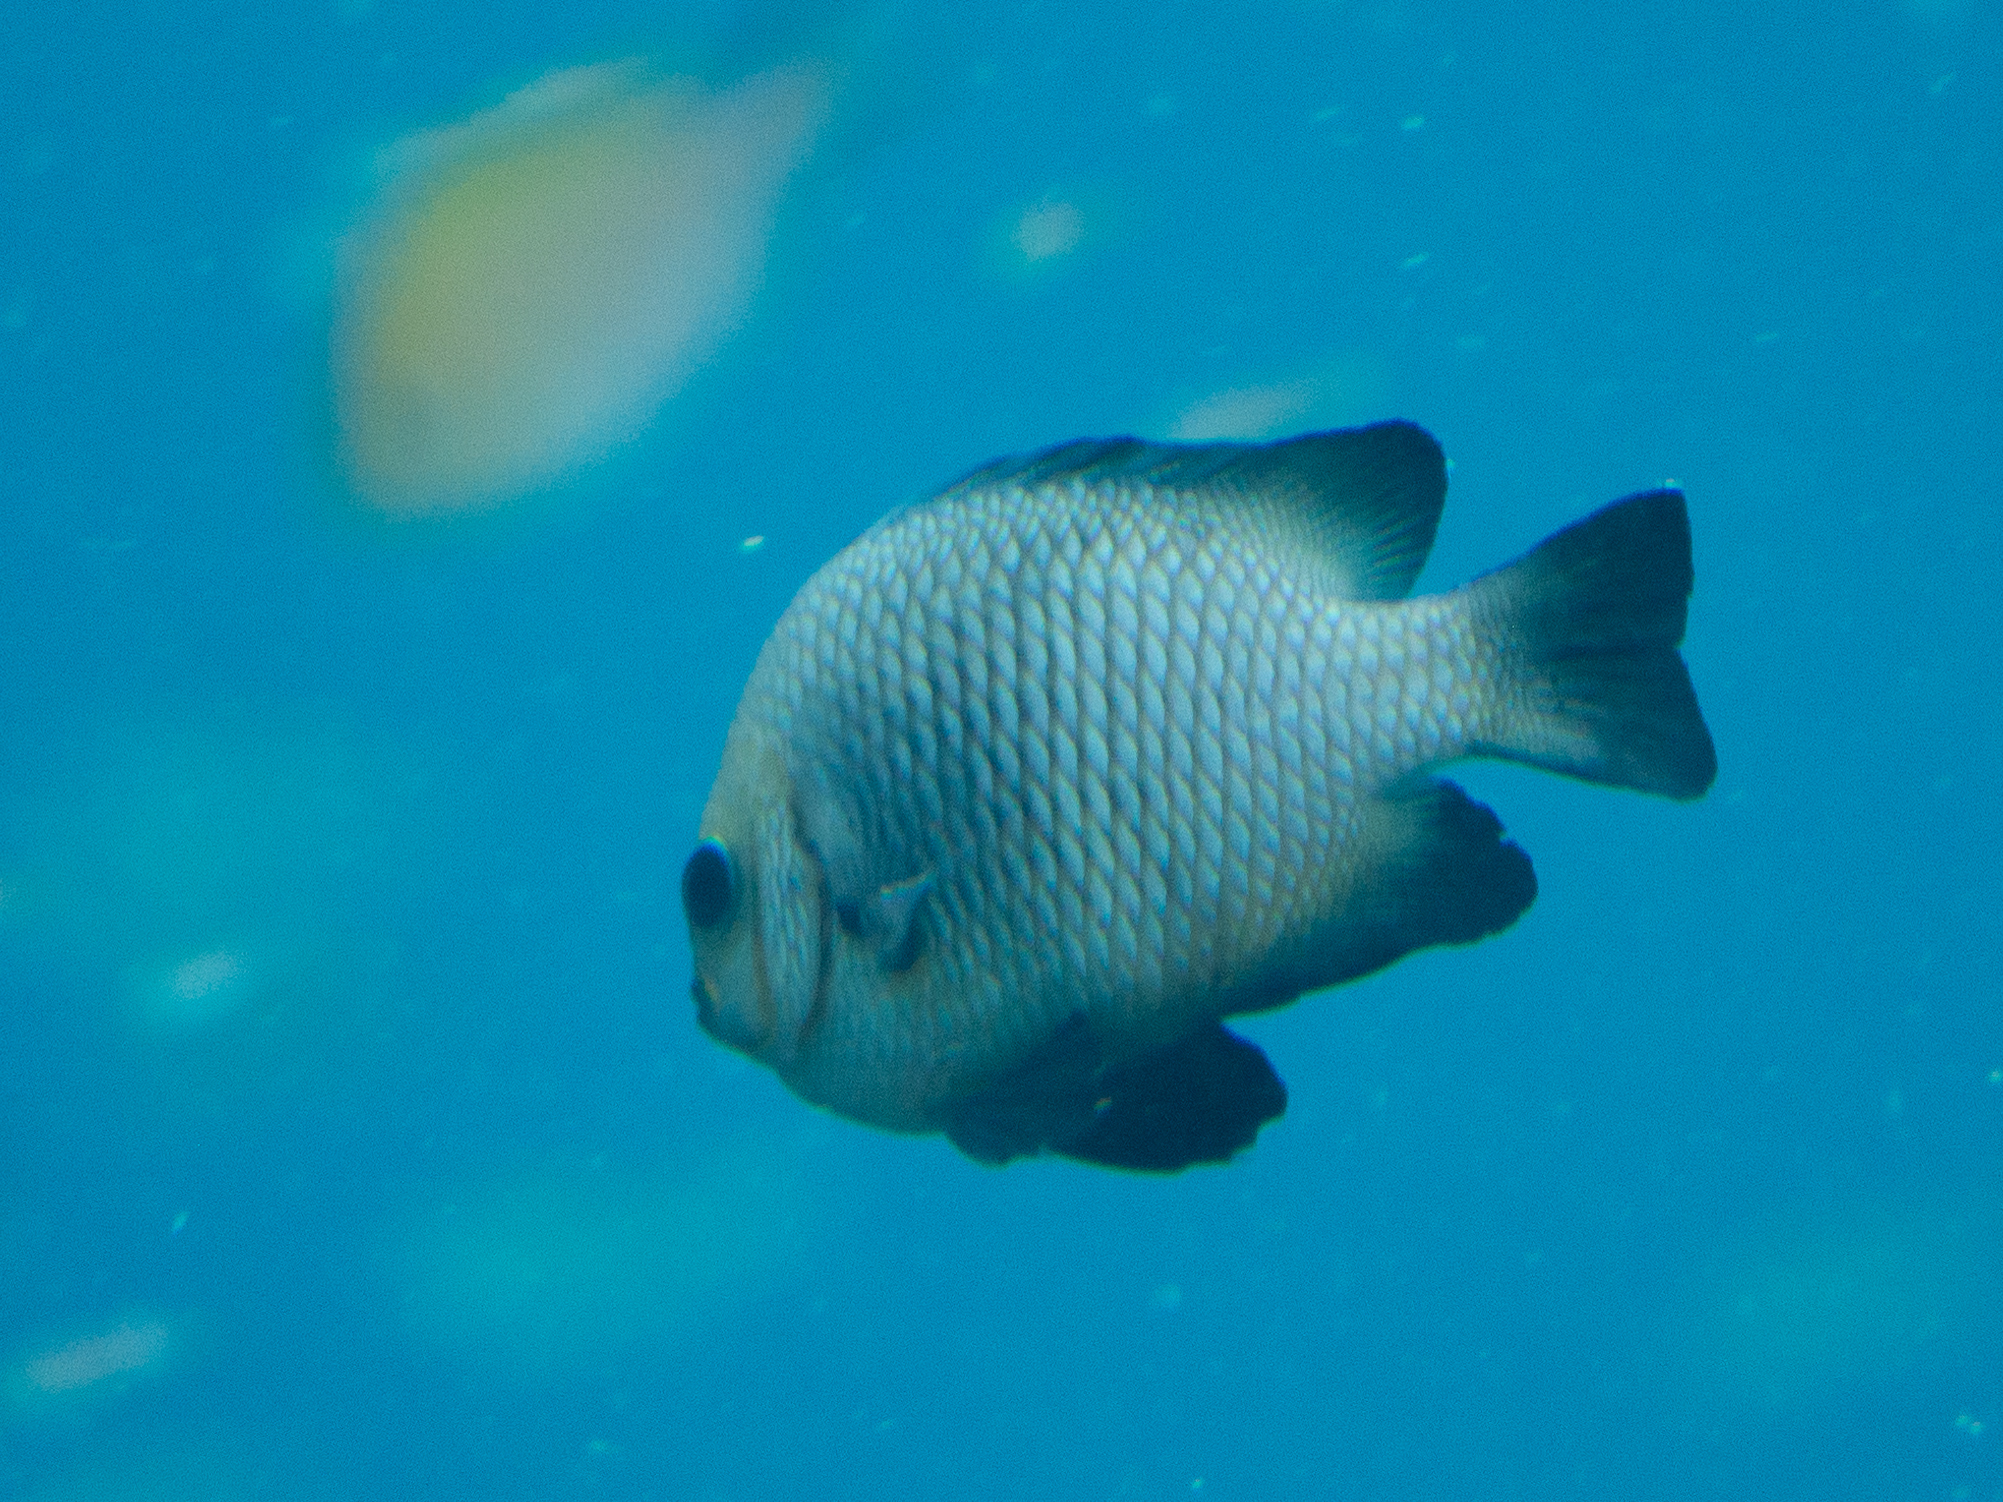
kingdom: Animalia
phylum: Chordata
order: Perciformes
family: Pomacentridae
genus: Dascyllus
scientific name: Dascyllus trimaculatus
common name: Threespot dascyllus
